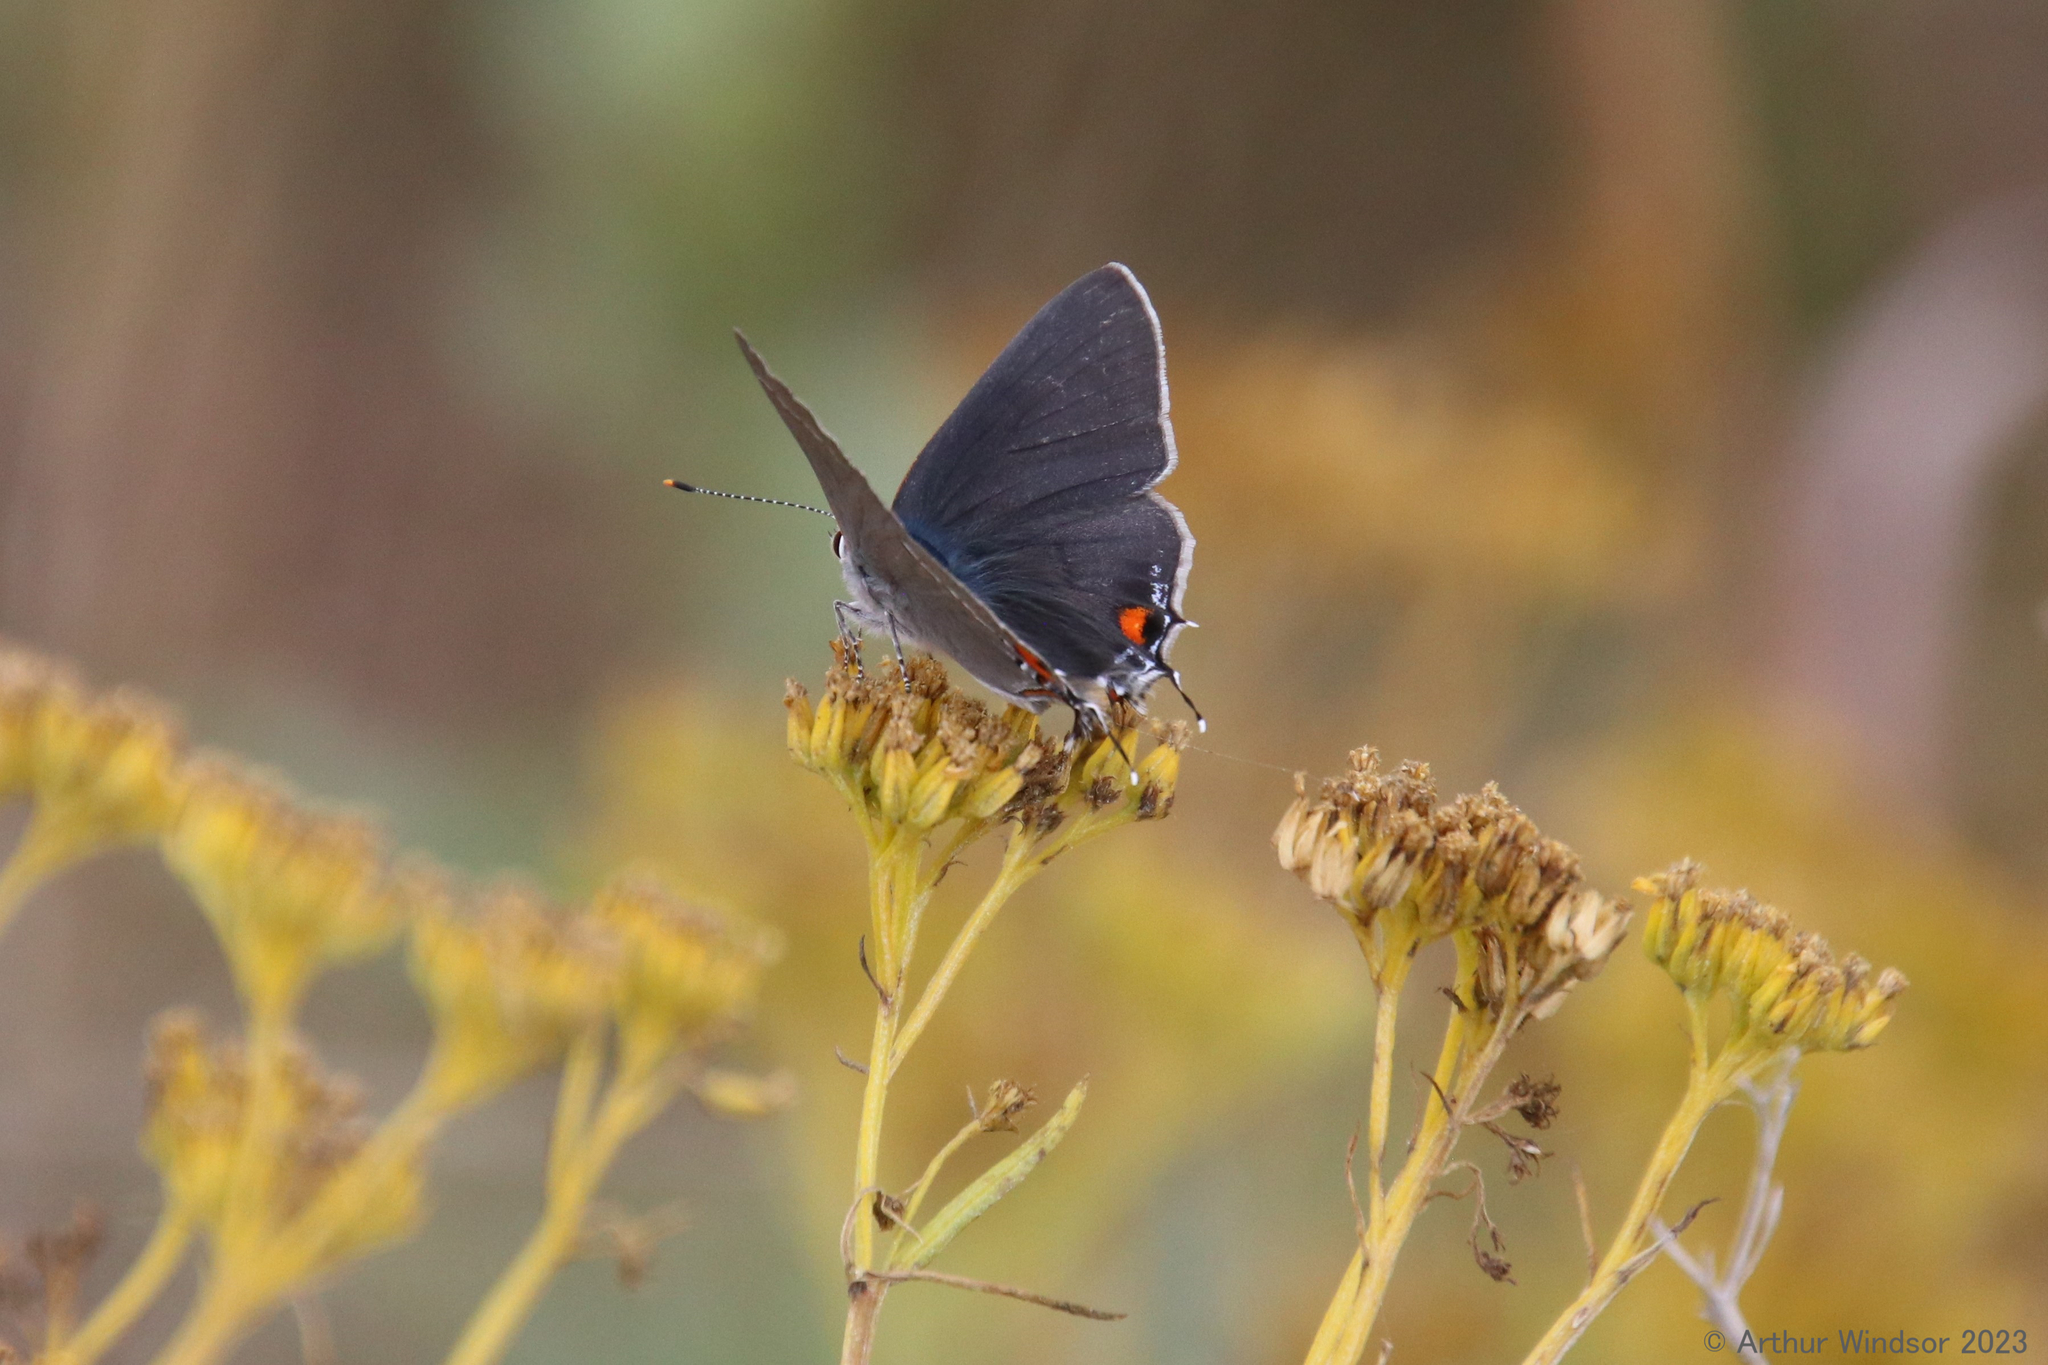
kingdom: Animalia
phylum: Arthropoda
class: Insecta
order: Lepidoptera
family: Lycaenidae
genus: Strymon
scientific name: Strymon melinus
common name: Gray hairstreak
